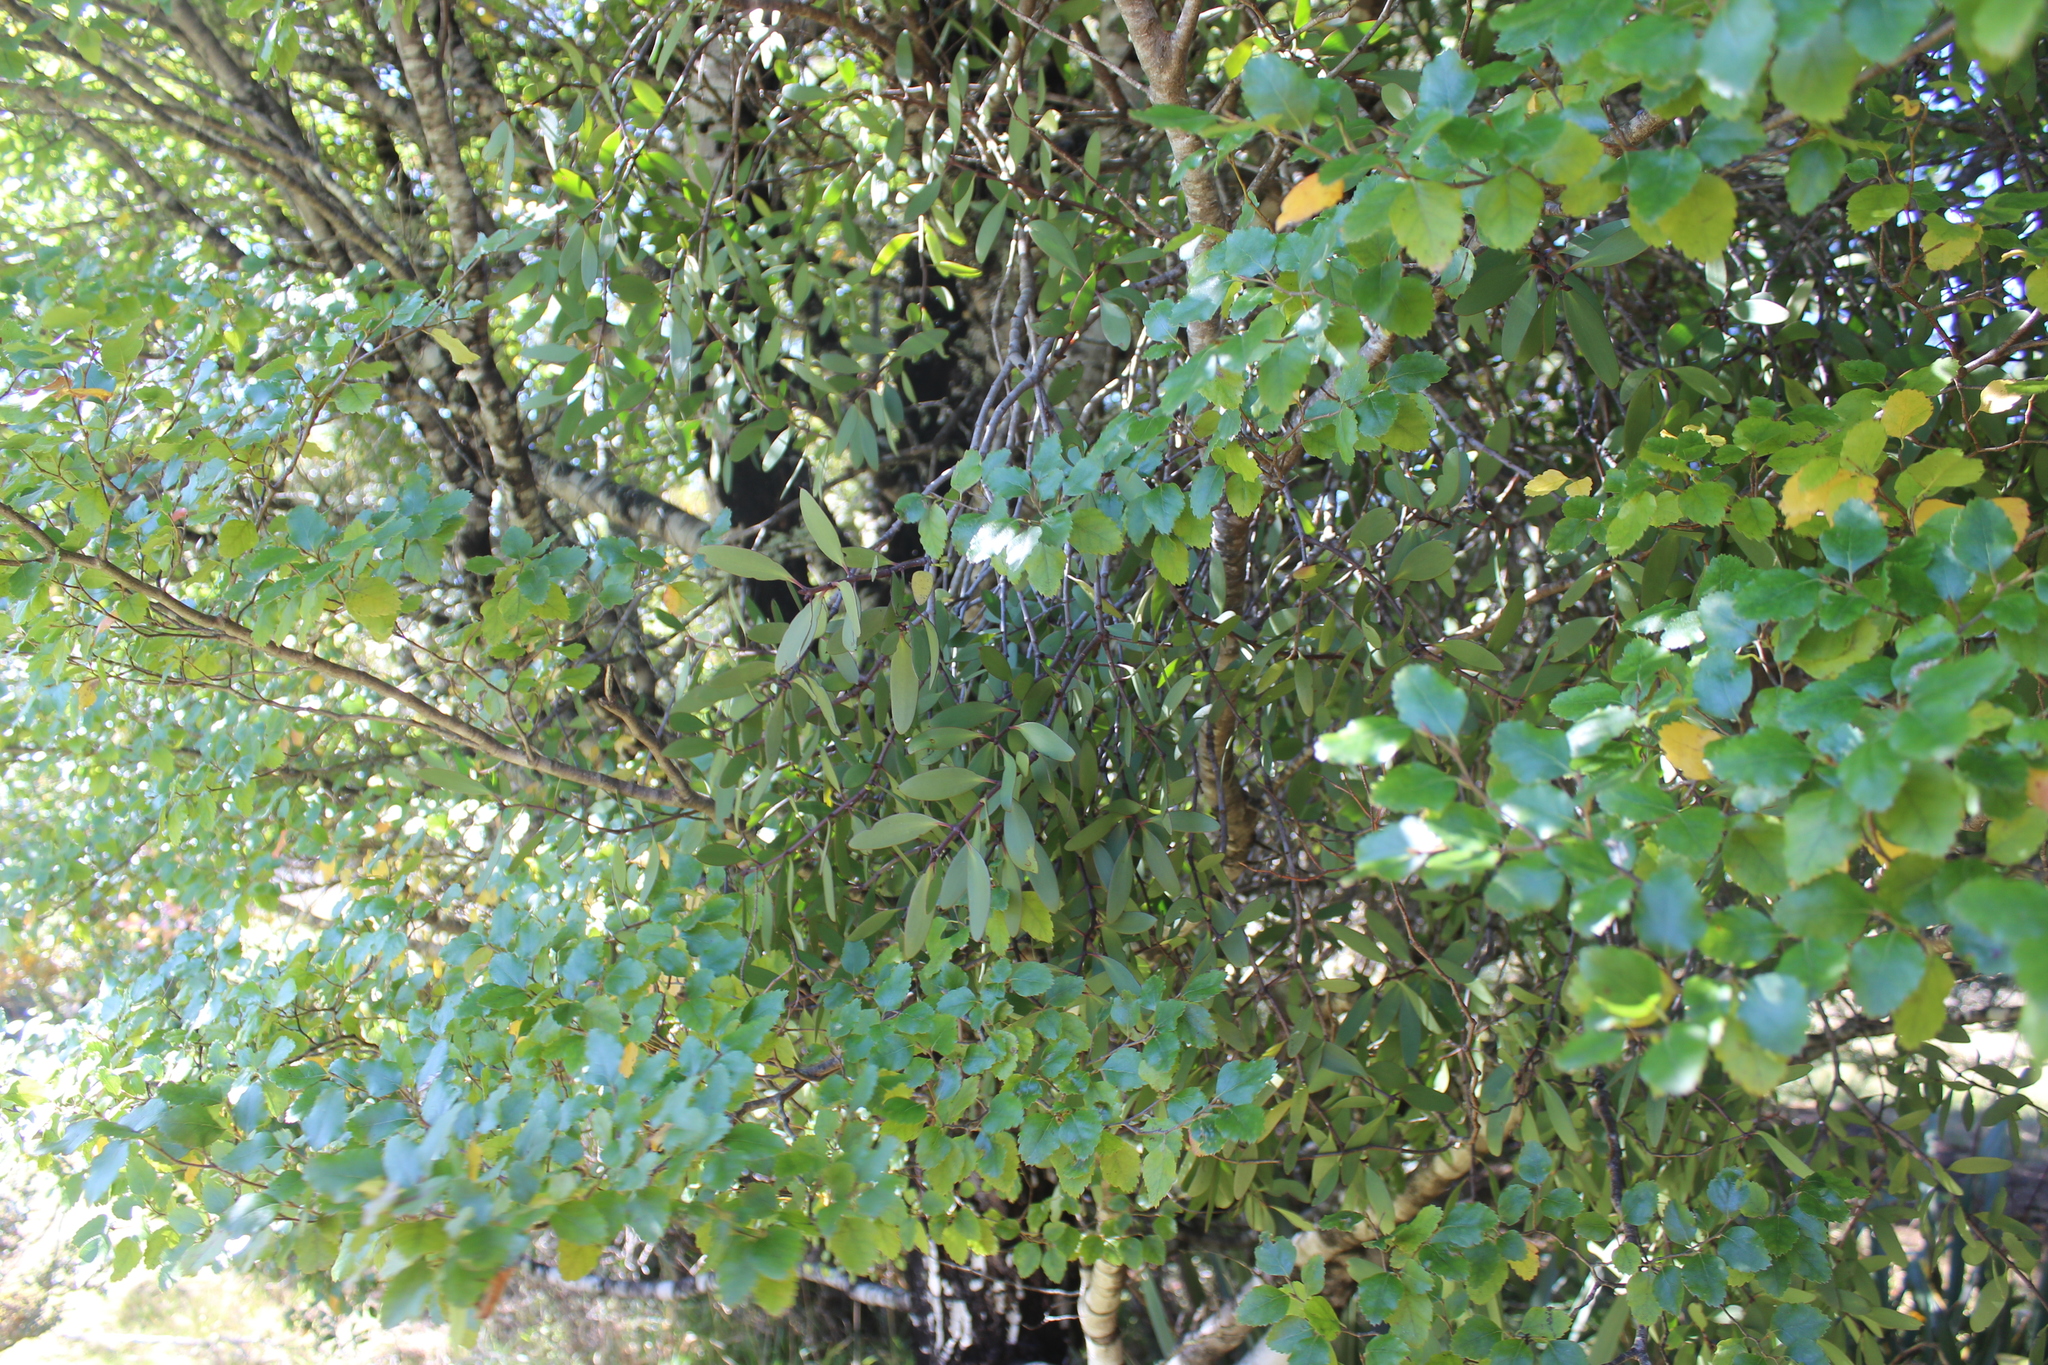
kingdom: Plantae
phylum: Tracheophyta
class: Magnoliopsida
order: Santalales
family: Loranthaceae
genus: Alepis
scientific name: Alepis flavida
